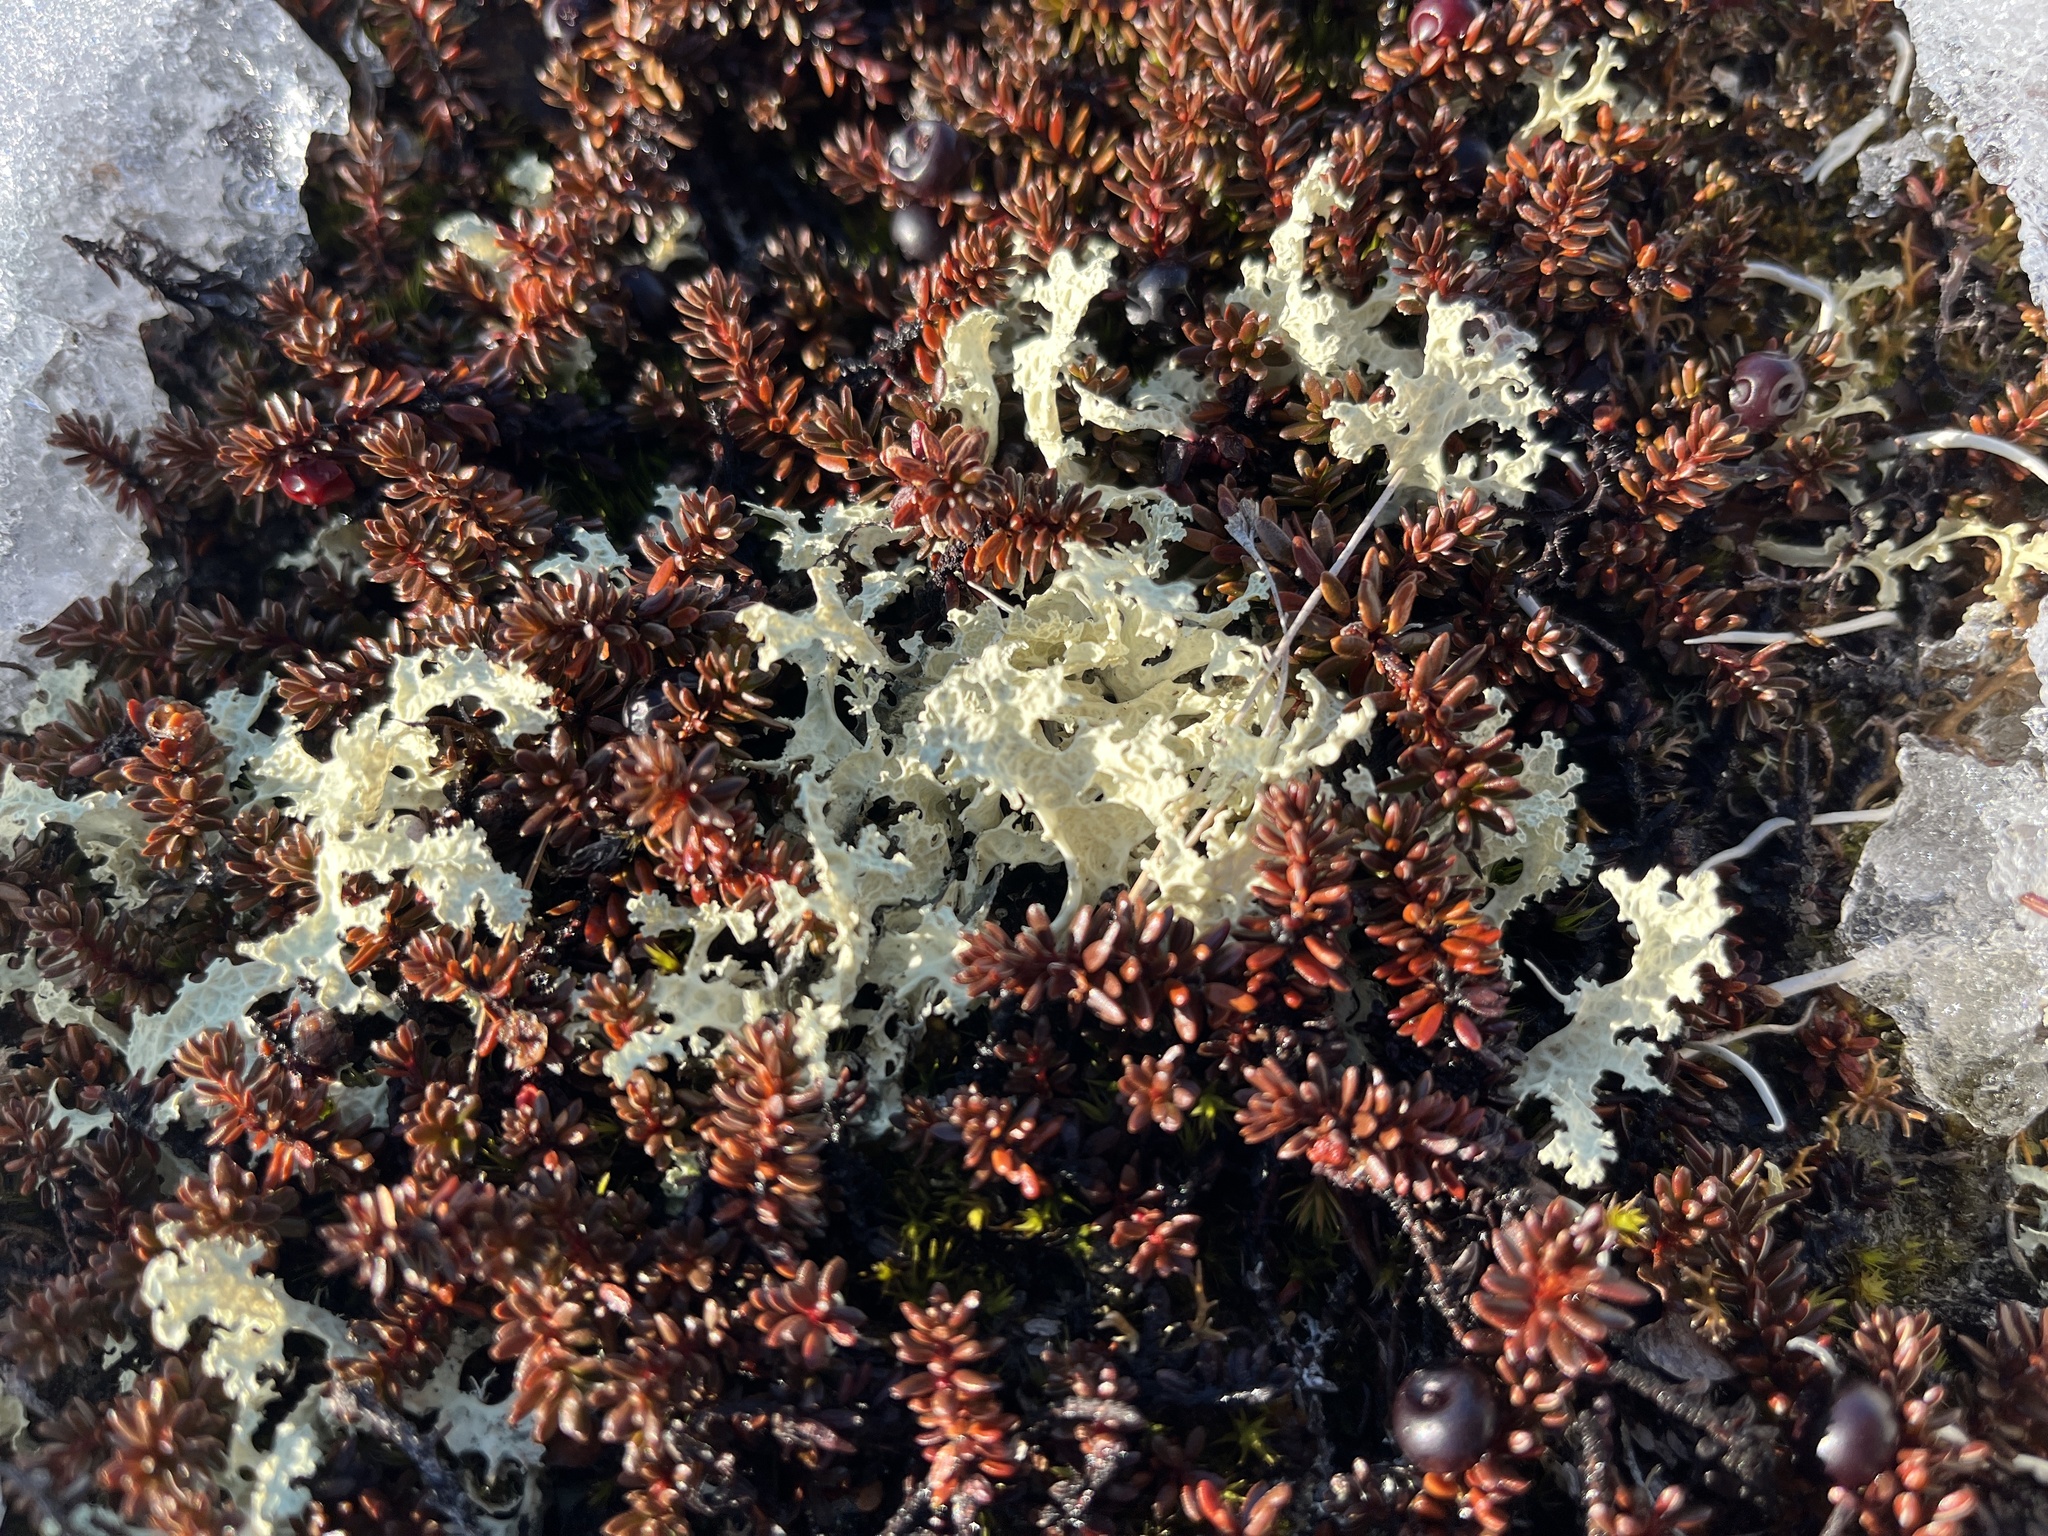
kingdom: Fungi
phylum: Ascomycota
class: Lecanoromycetes
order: Lecanorales
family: Parmeliaceae
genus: Nephromopsis
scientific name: Nephromopsis nivalis
